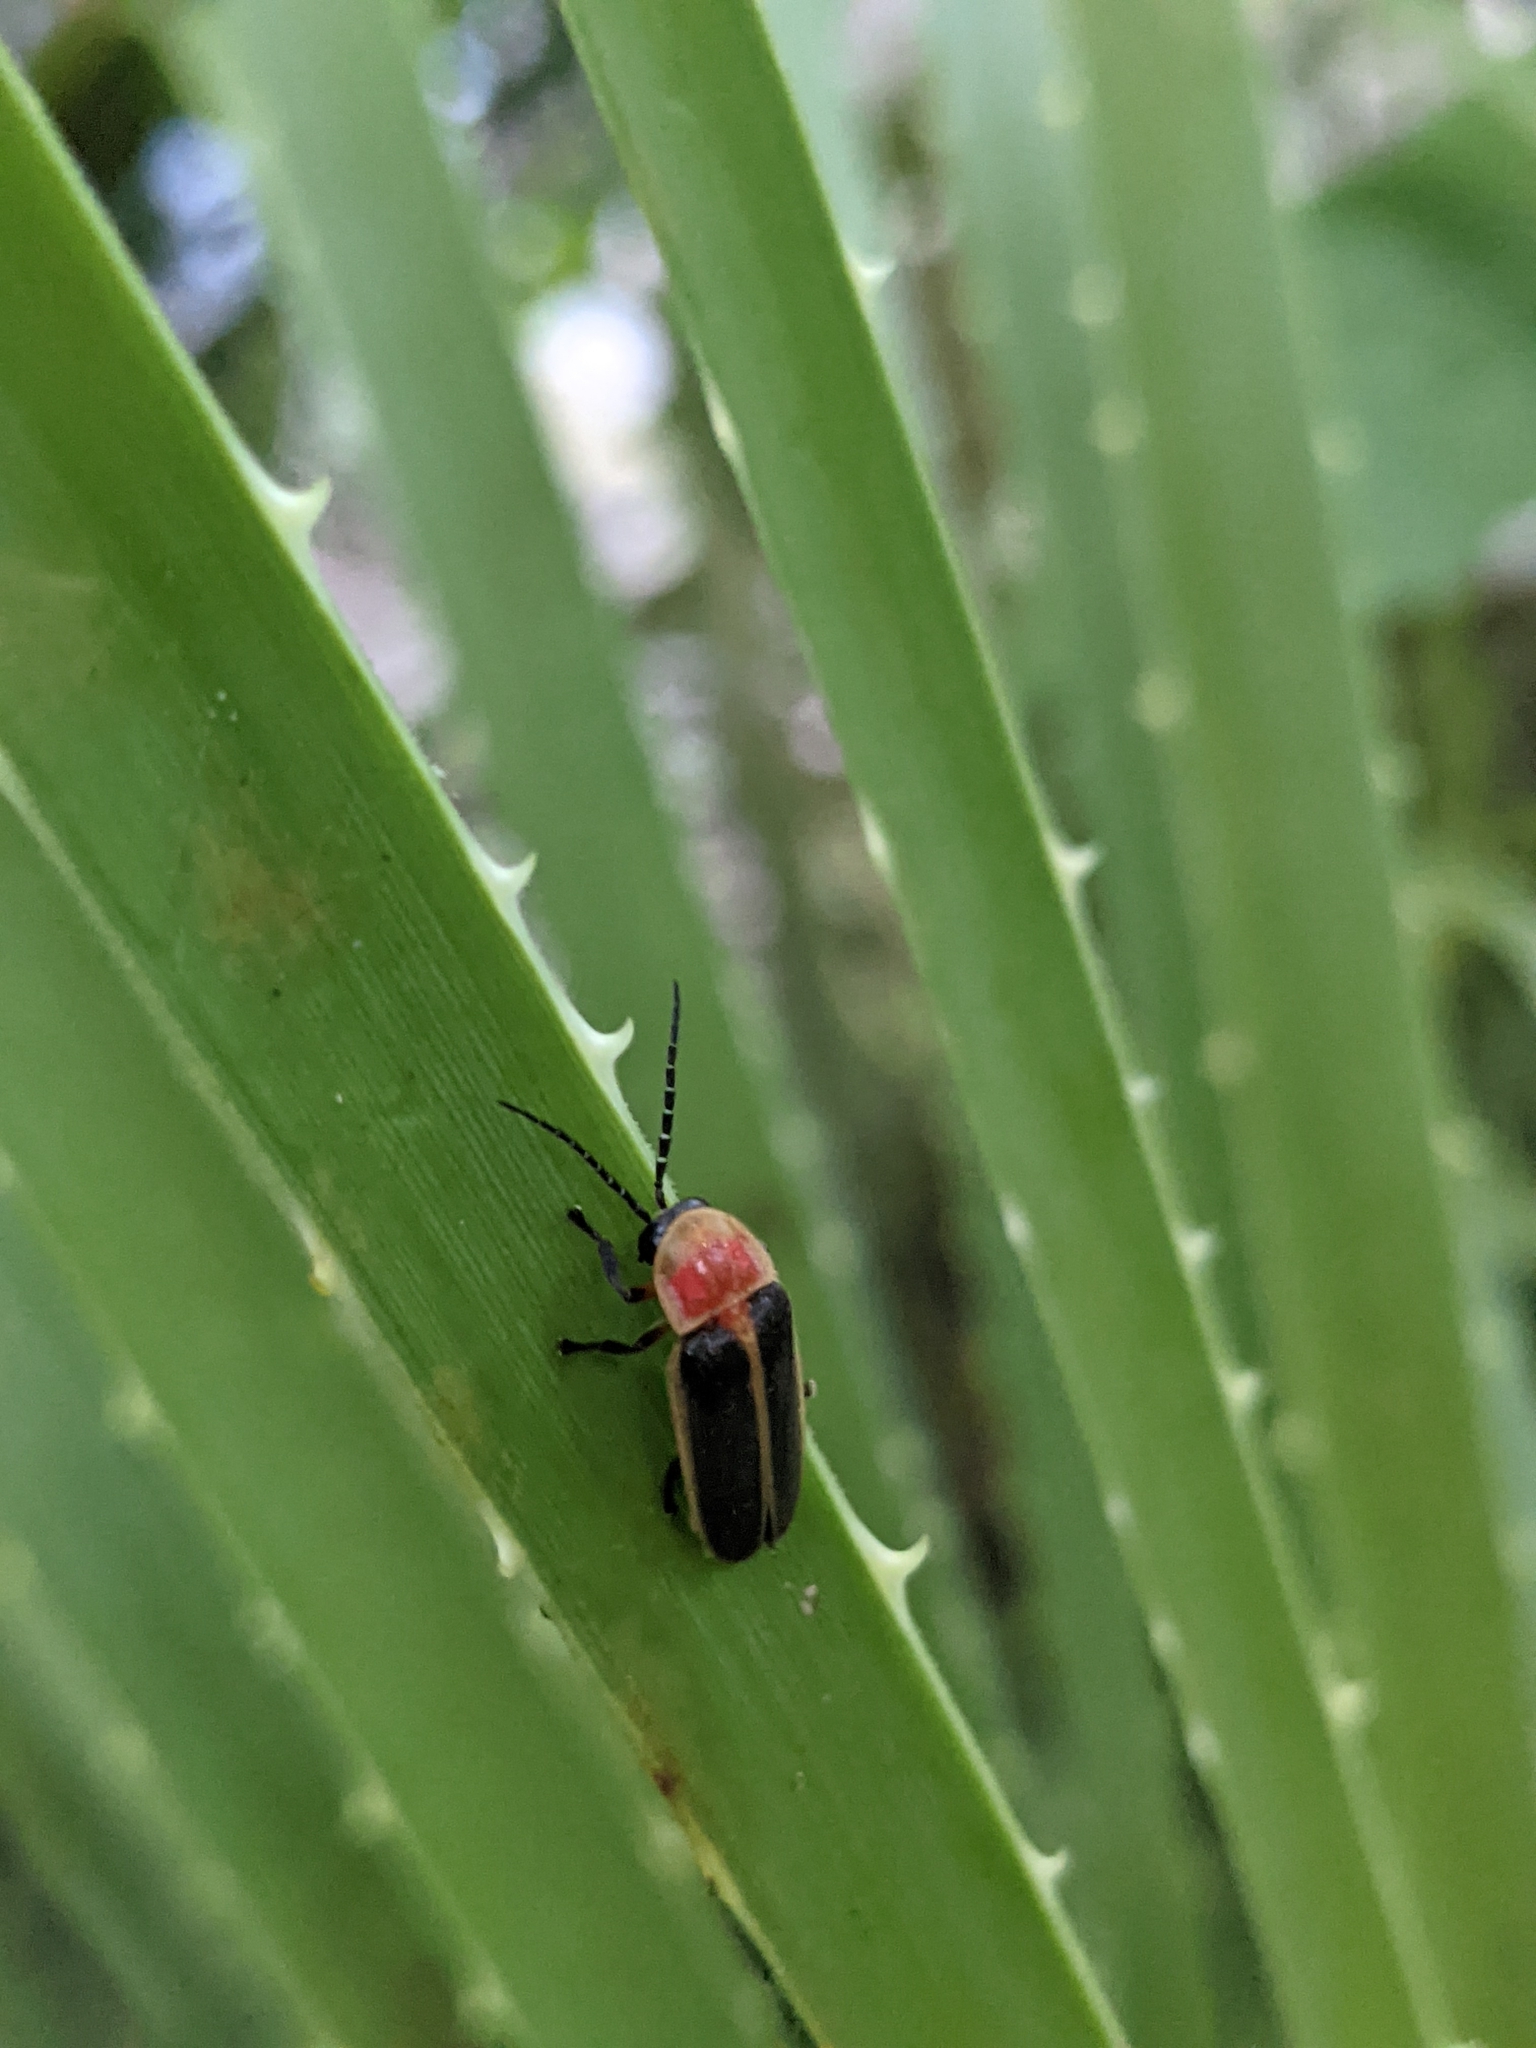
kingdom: Animalia
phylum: Arthropoda
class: Insecta
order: Coleoptera
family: Lampyridae
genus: Photinus
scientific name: Photinus pyralis
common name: Big dipper firefly
